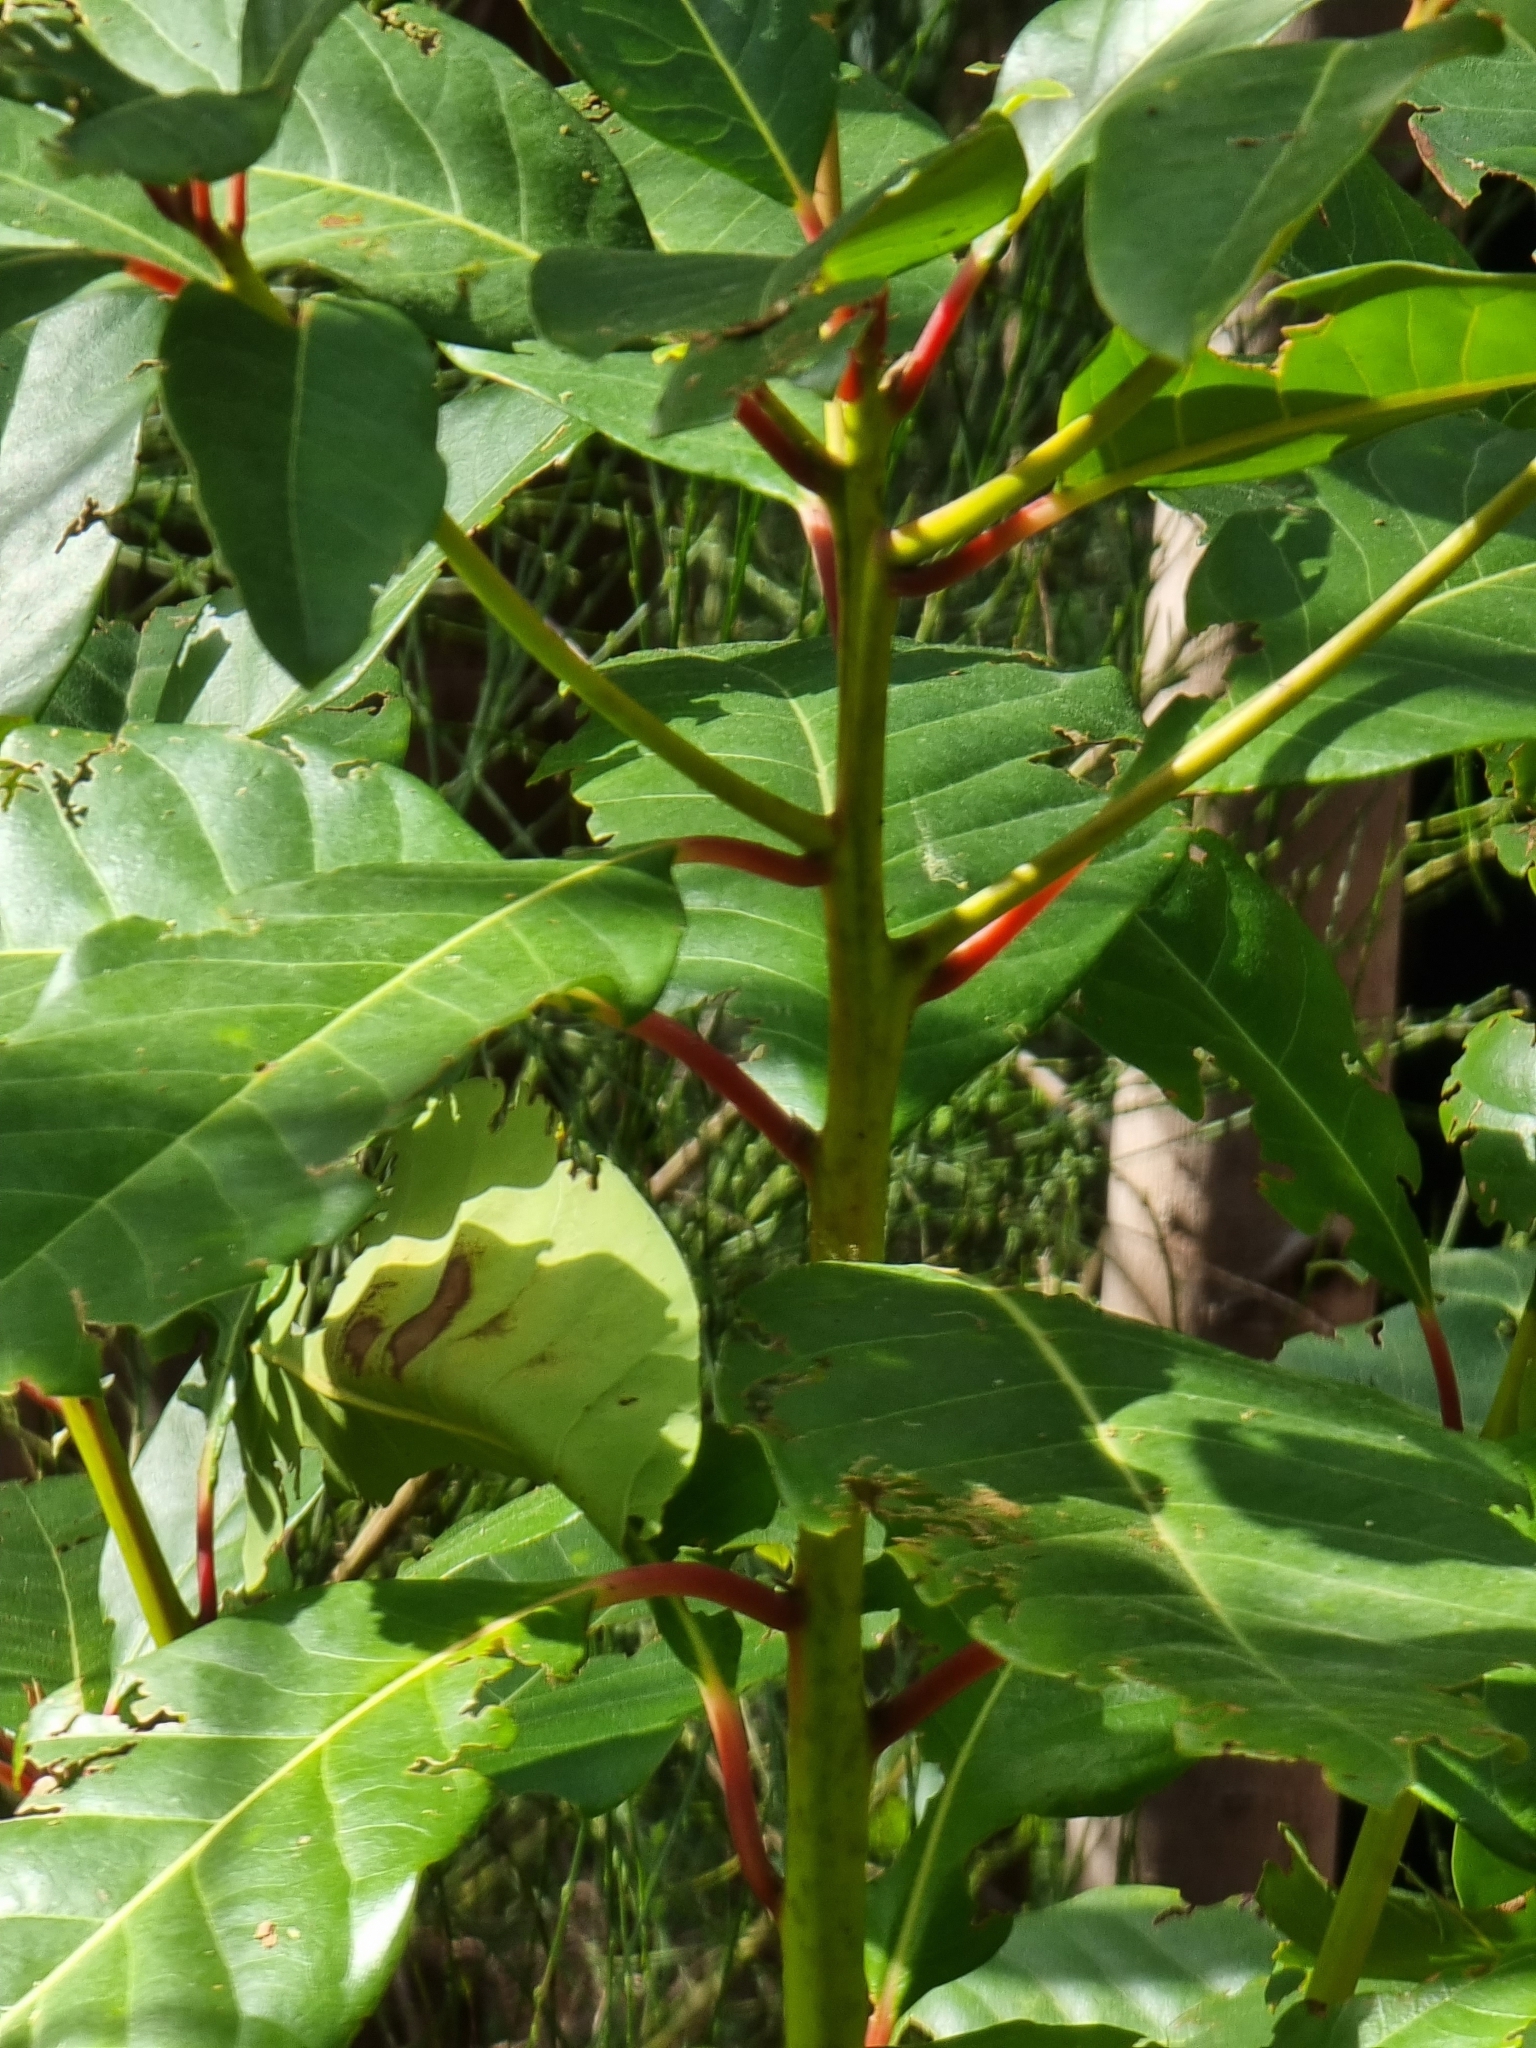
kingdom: Plantae
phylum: Tracheophyta
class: Magnoliopsida
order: Laurales
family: Lauraceae
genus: Persea
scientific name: Persea indica
